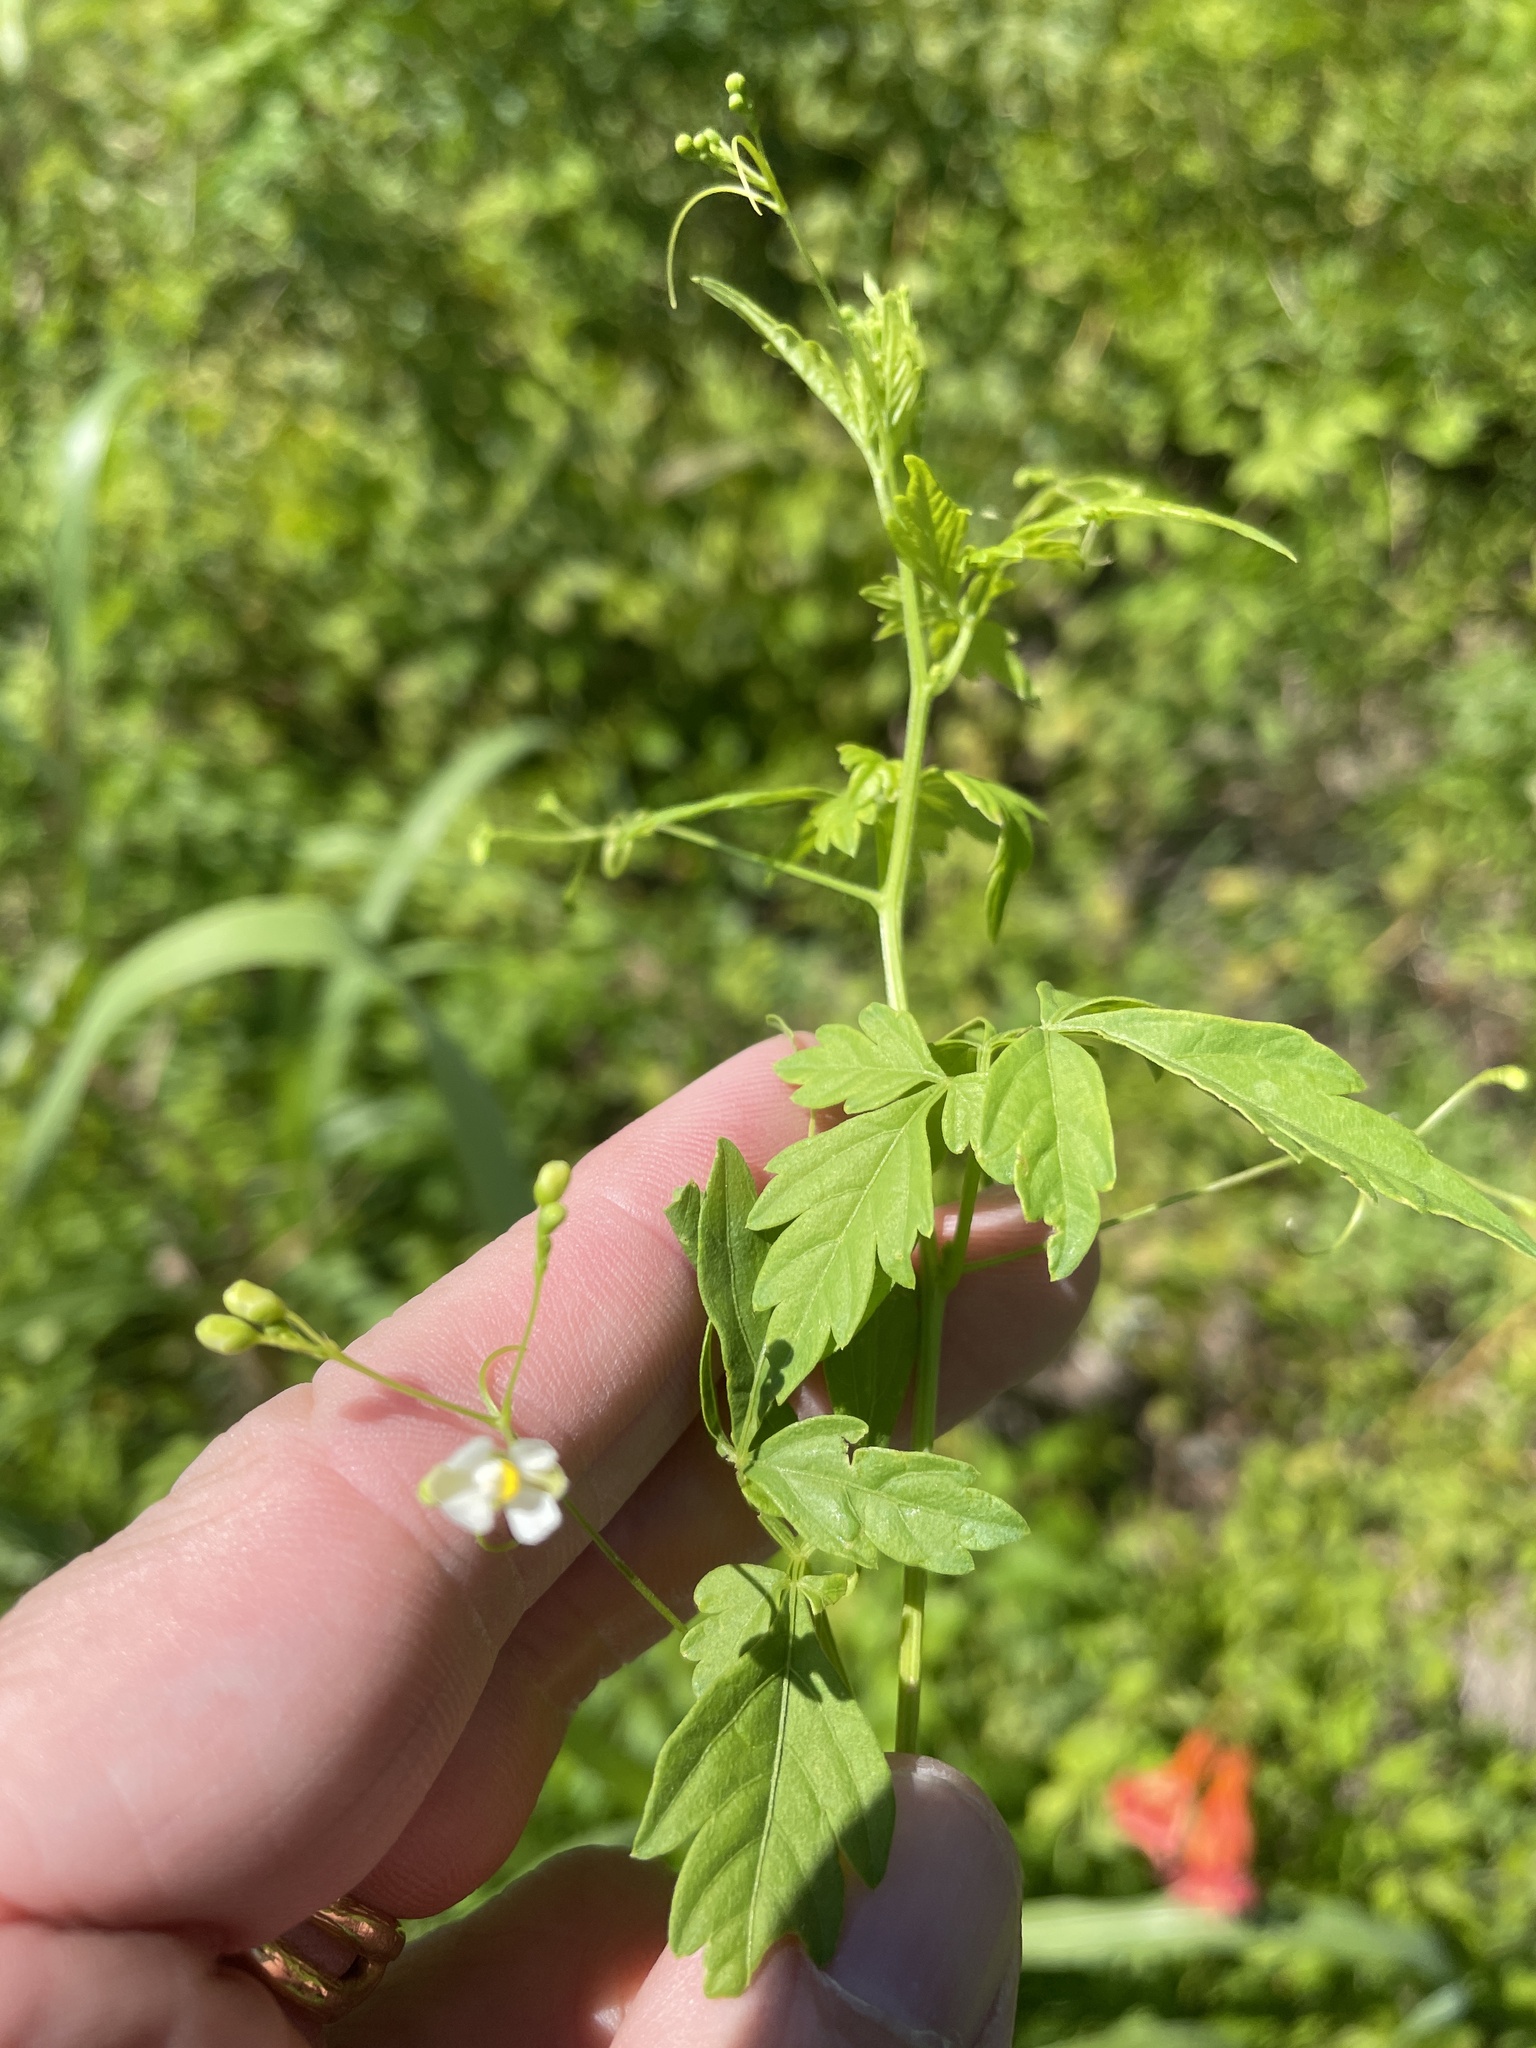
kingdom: Plantae
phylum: Tracheophyta
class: Magnoliopsida
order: Sapindales
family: Sapindaceae
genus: Cardiospermum
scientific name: Cardiospermum halicacabum
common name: Balloon vine
